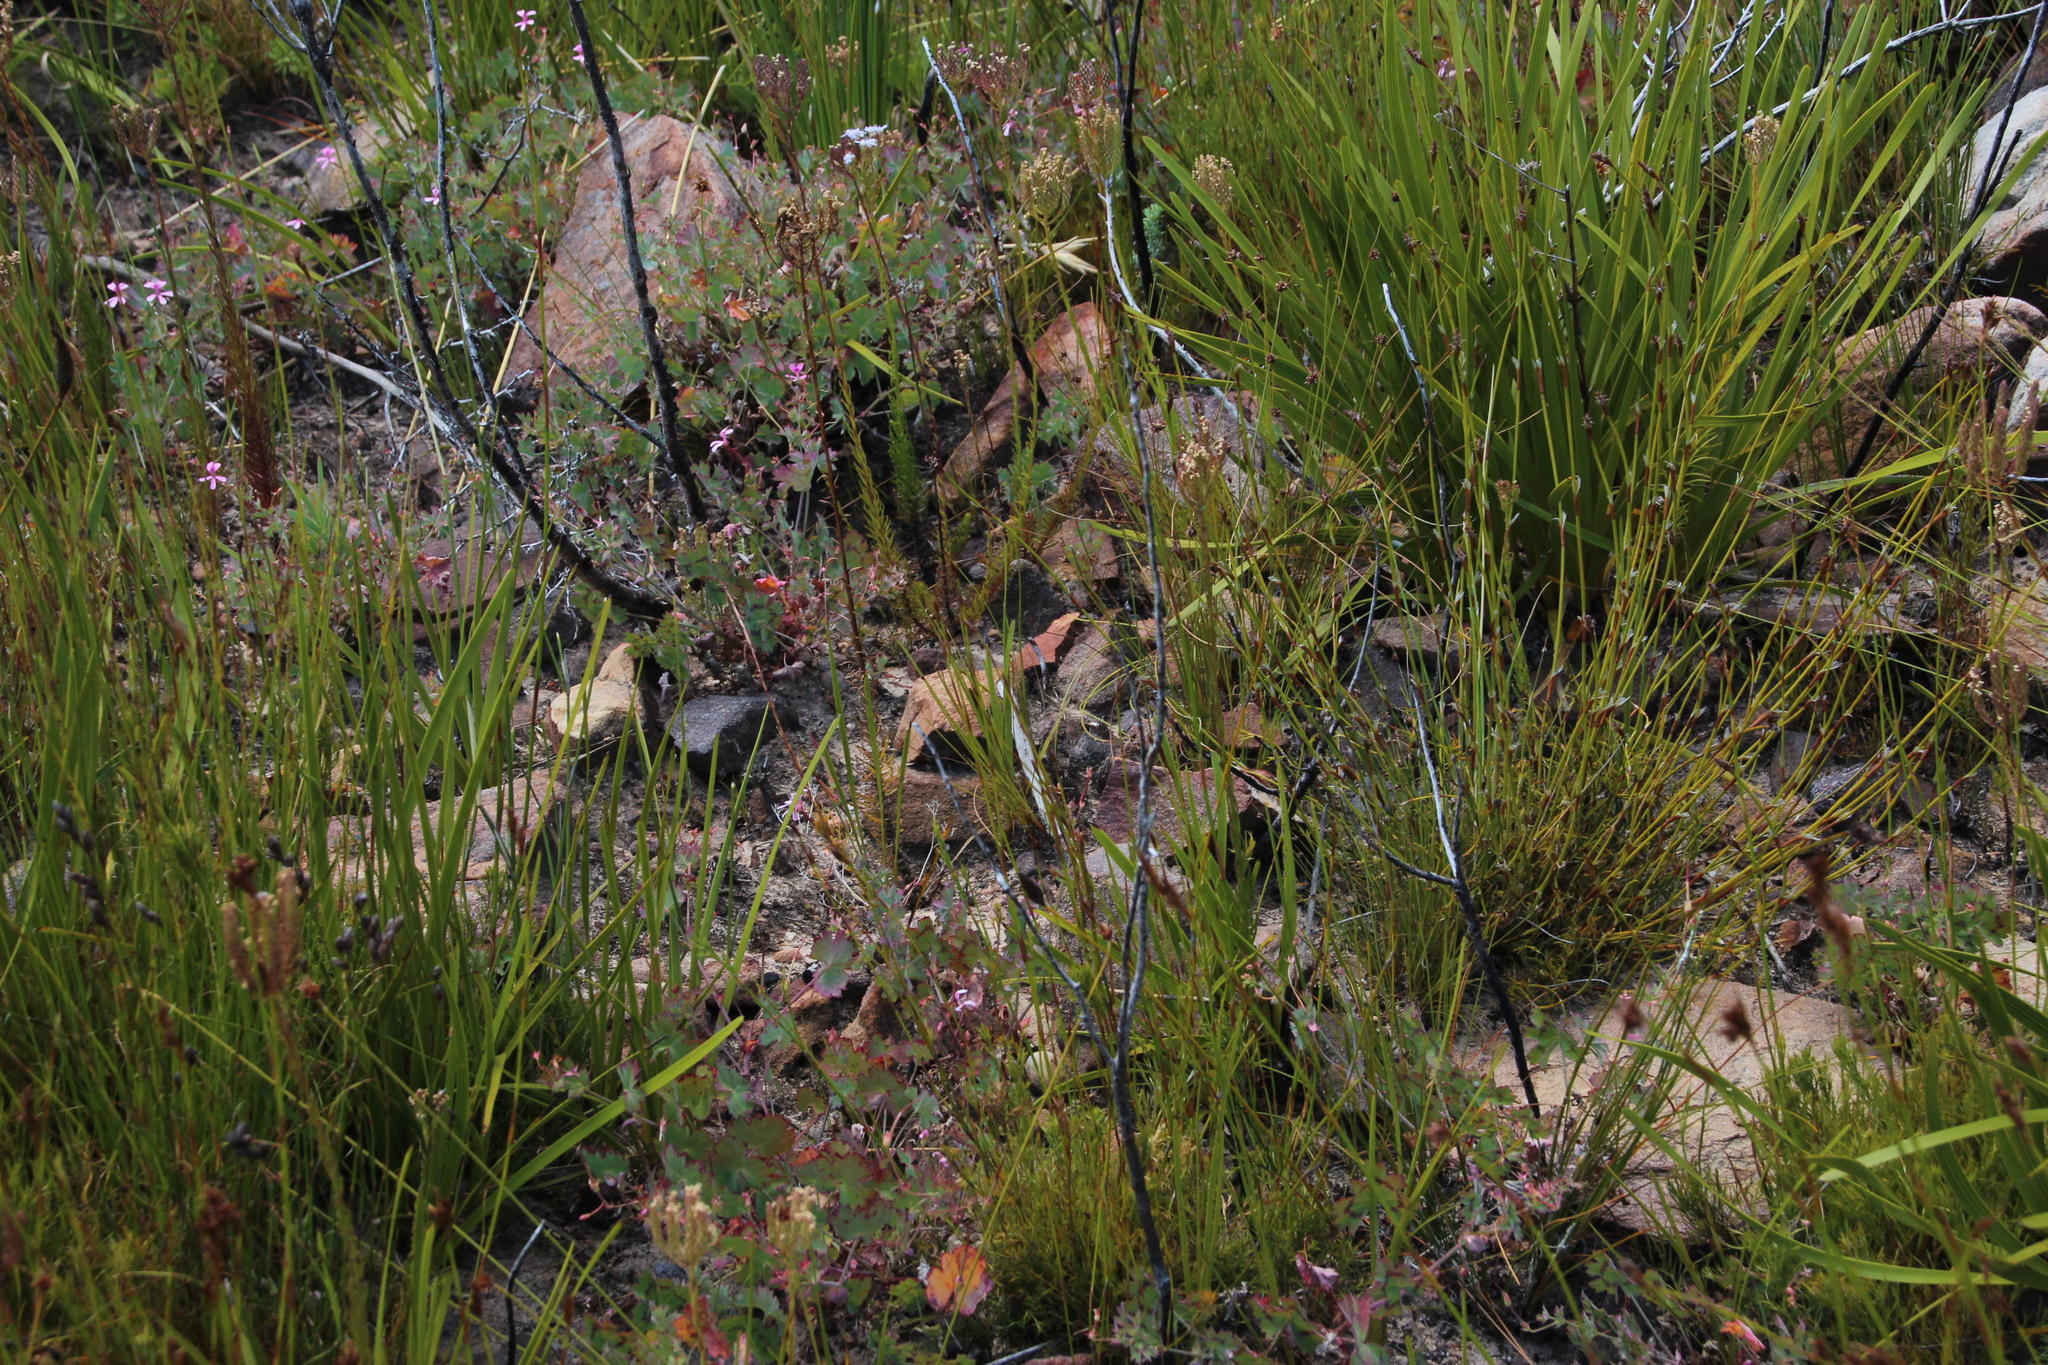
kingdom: Plantae
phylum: Tracheophyta
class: Magnoliopsida
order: Geraniales
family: Geraniaceae
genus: Pelargonium
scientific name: Pelargonium patulum
